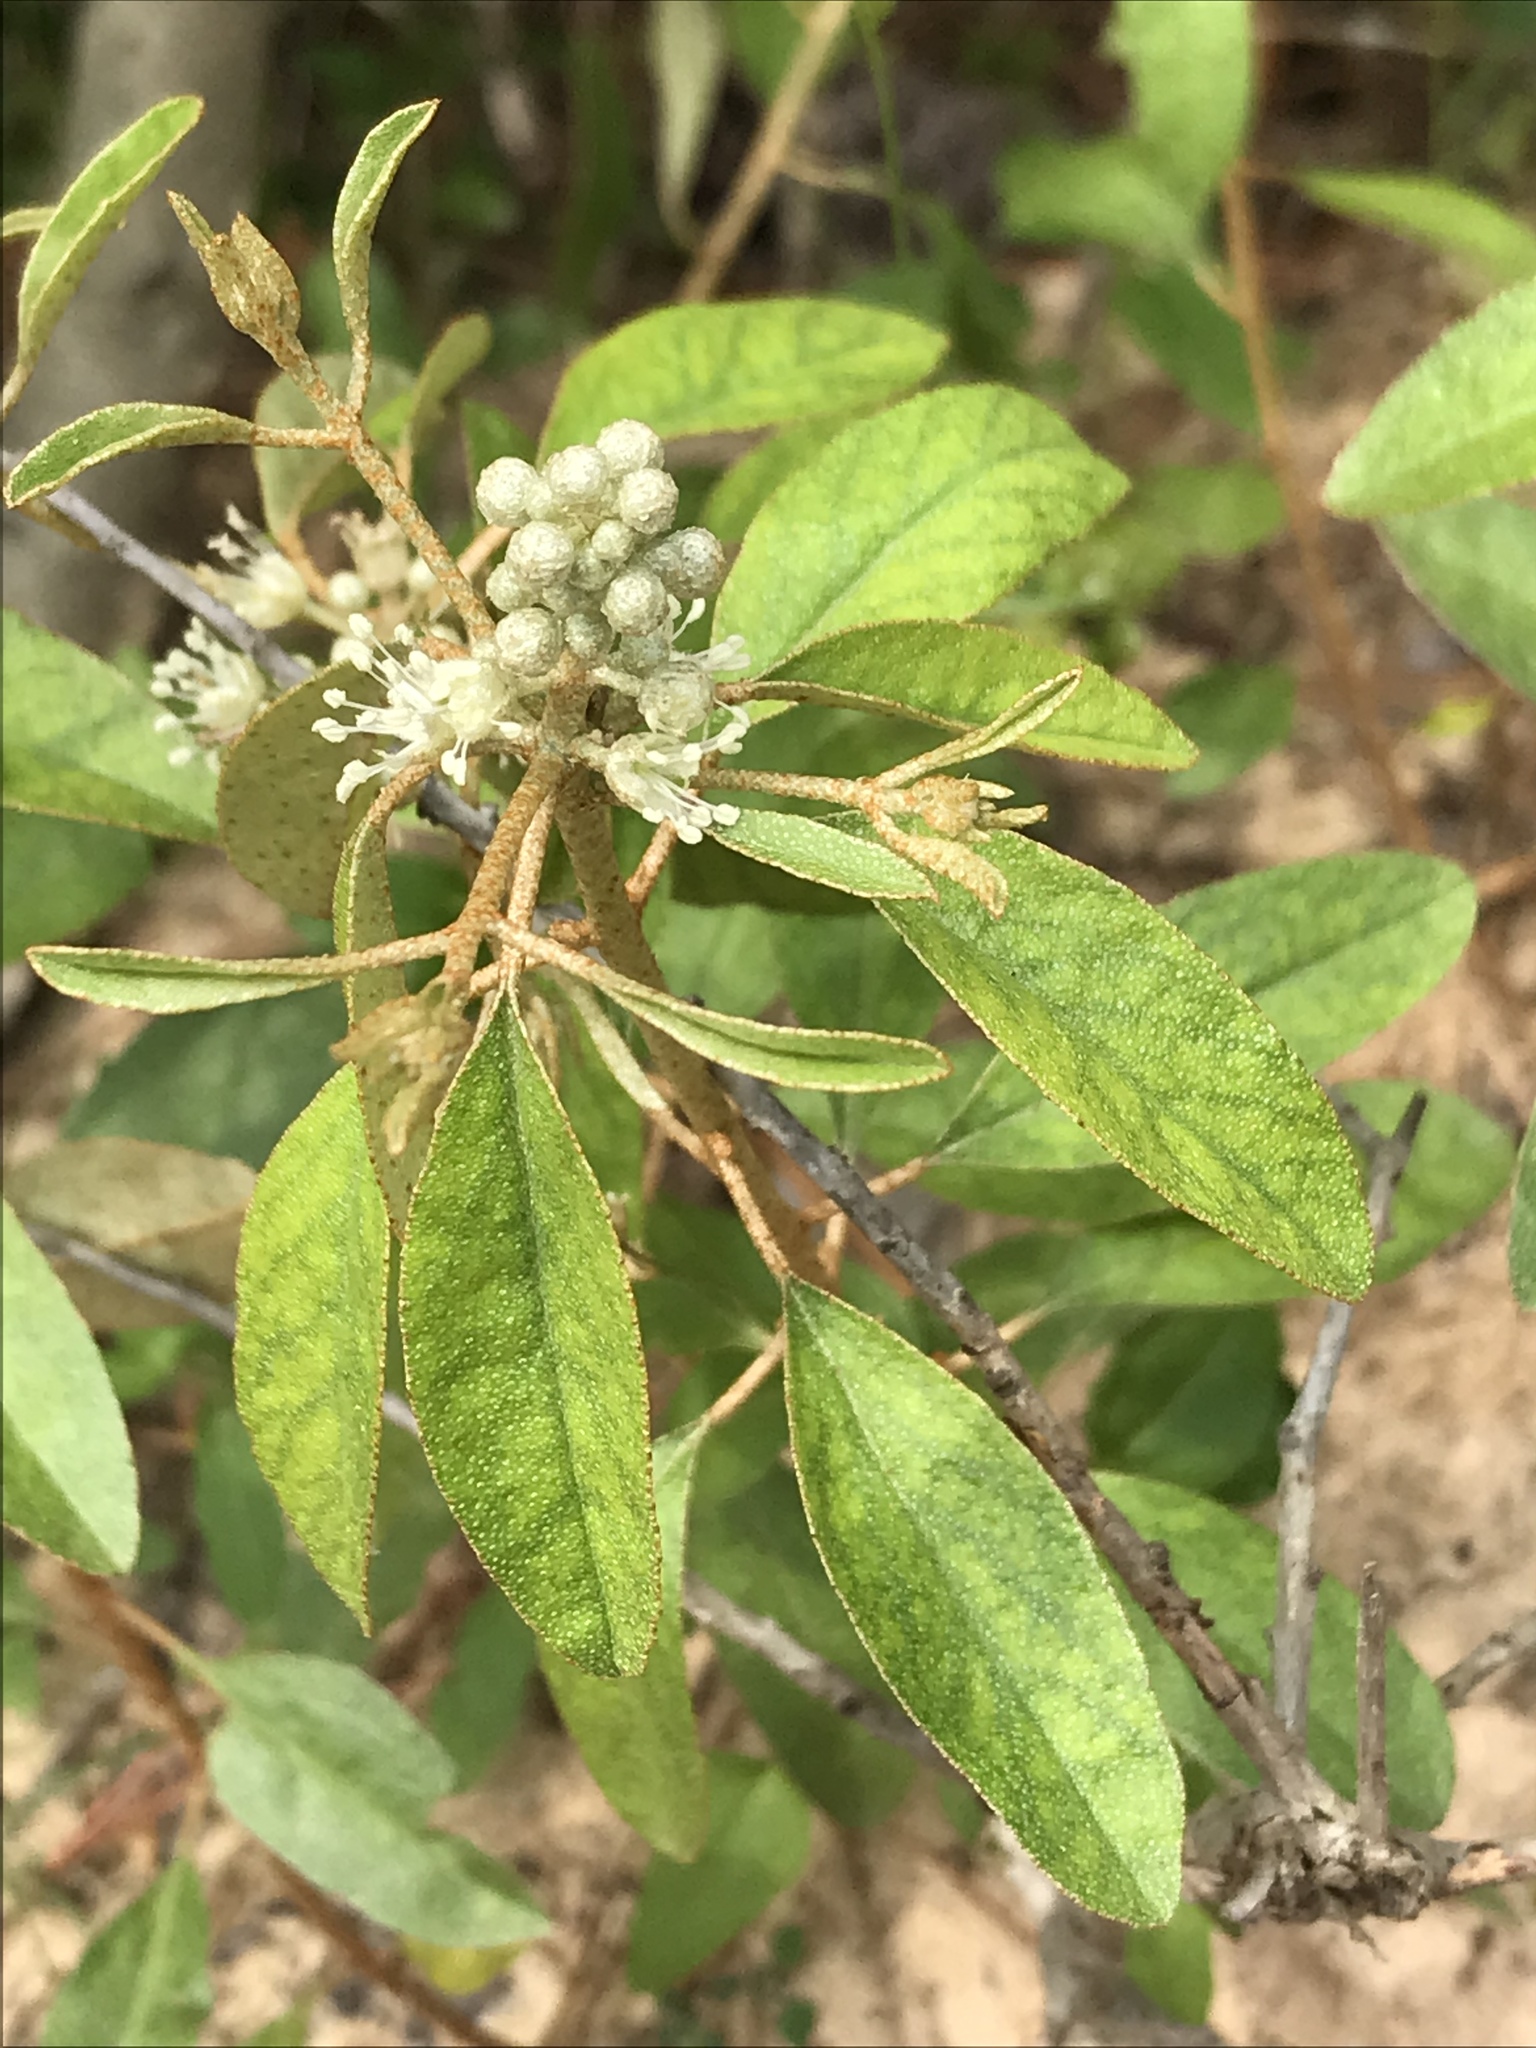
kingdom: Plantae
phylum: Tracheophyta
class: Magnoliopsida
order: Malpighiales
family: Euphorbiaceae
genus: Croton
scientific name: Croton argyranthemus
